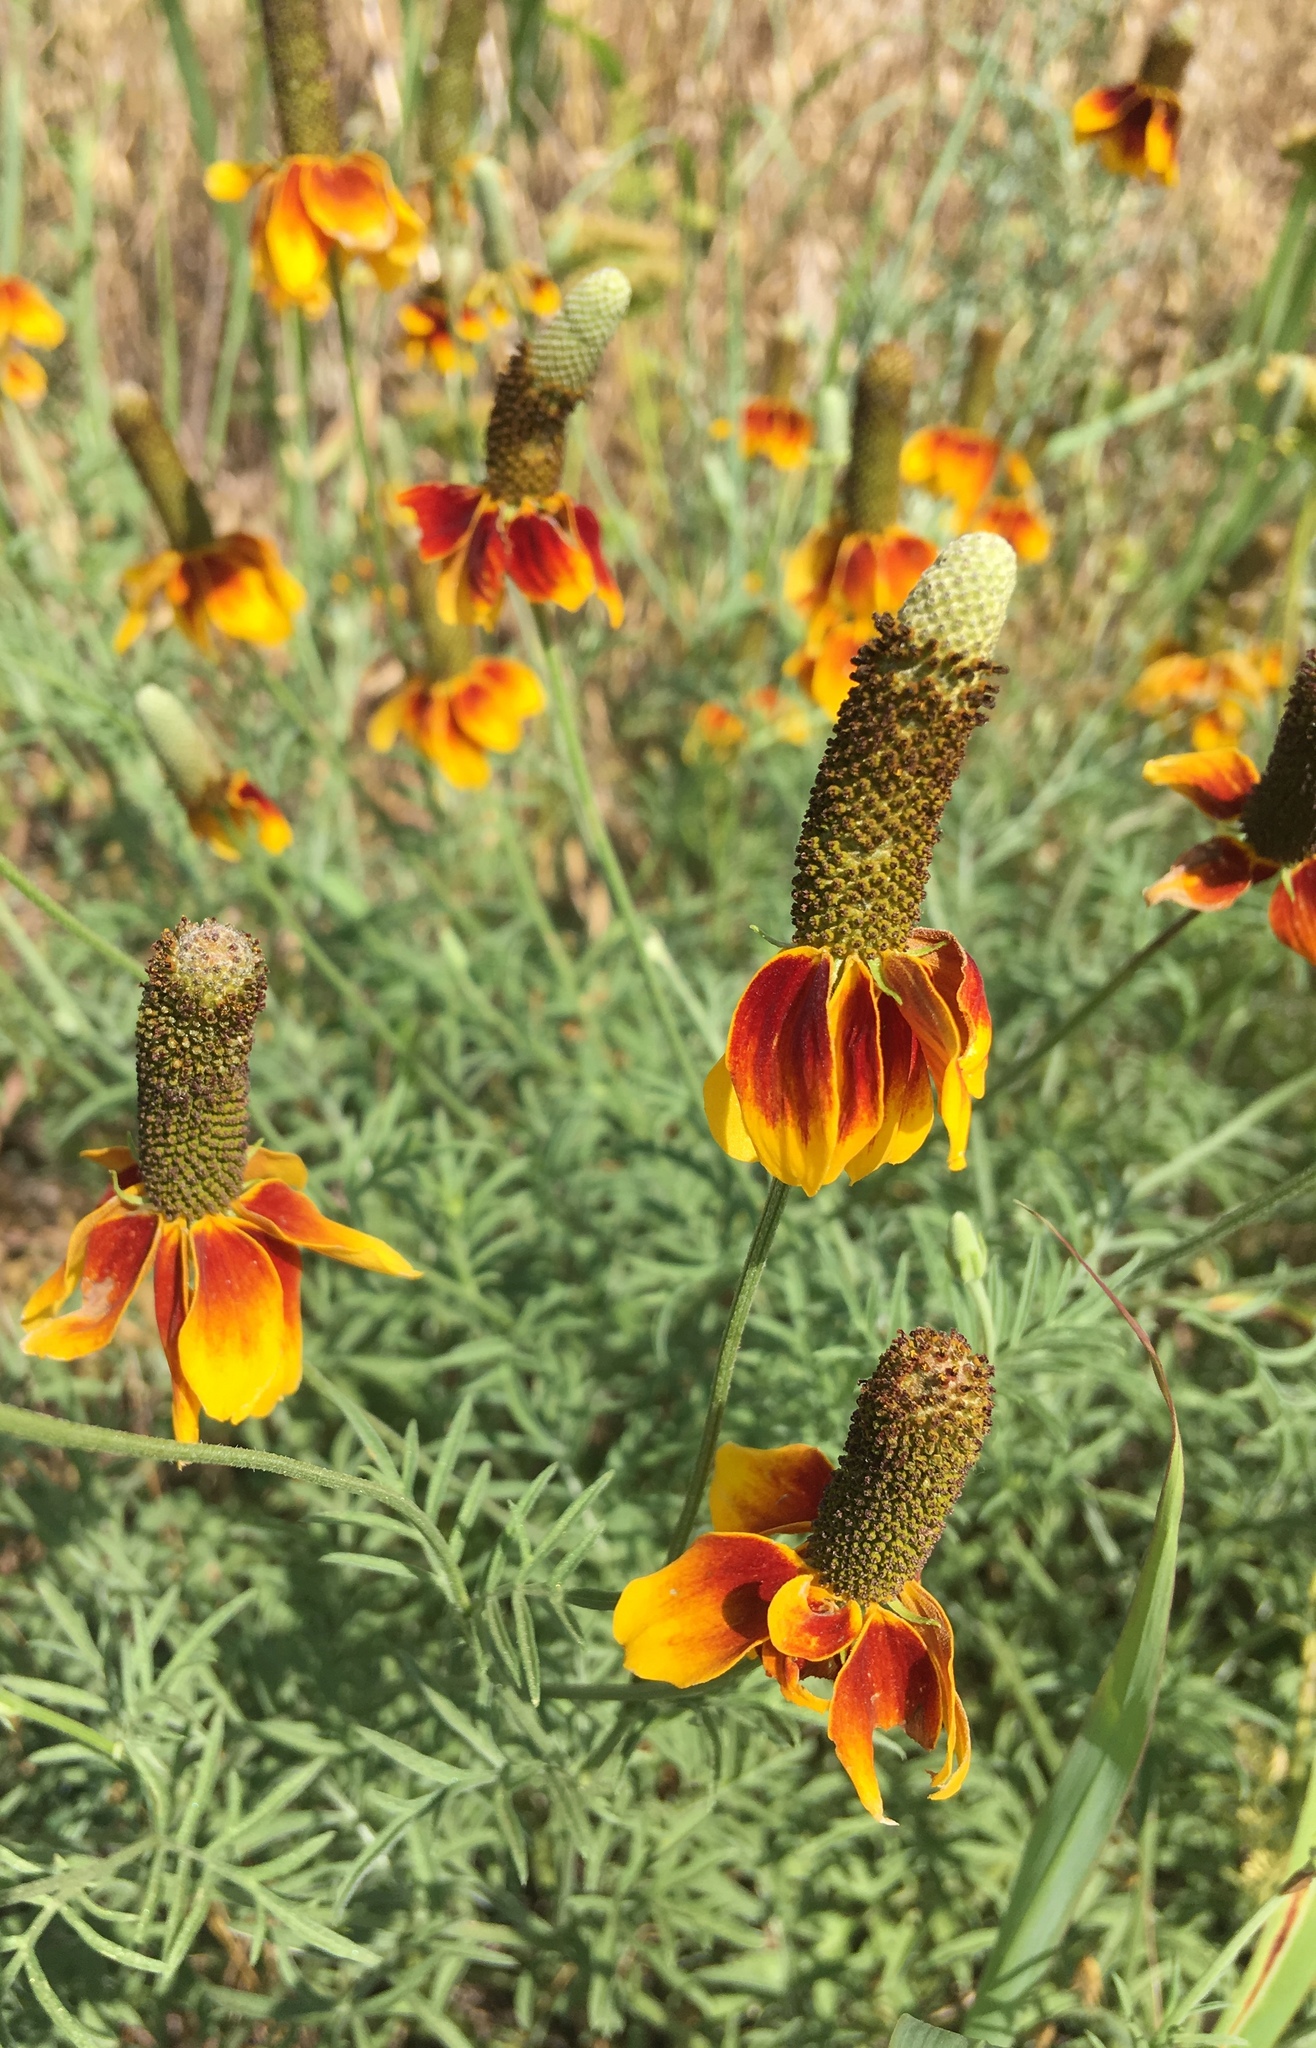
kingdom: Plantae
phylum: Tracheophyta
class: Magnoliopsida
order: Asterales
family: Asteraceae
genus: Ratibida
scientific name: Ratibida columnifera
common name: Prairie coneflower
